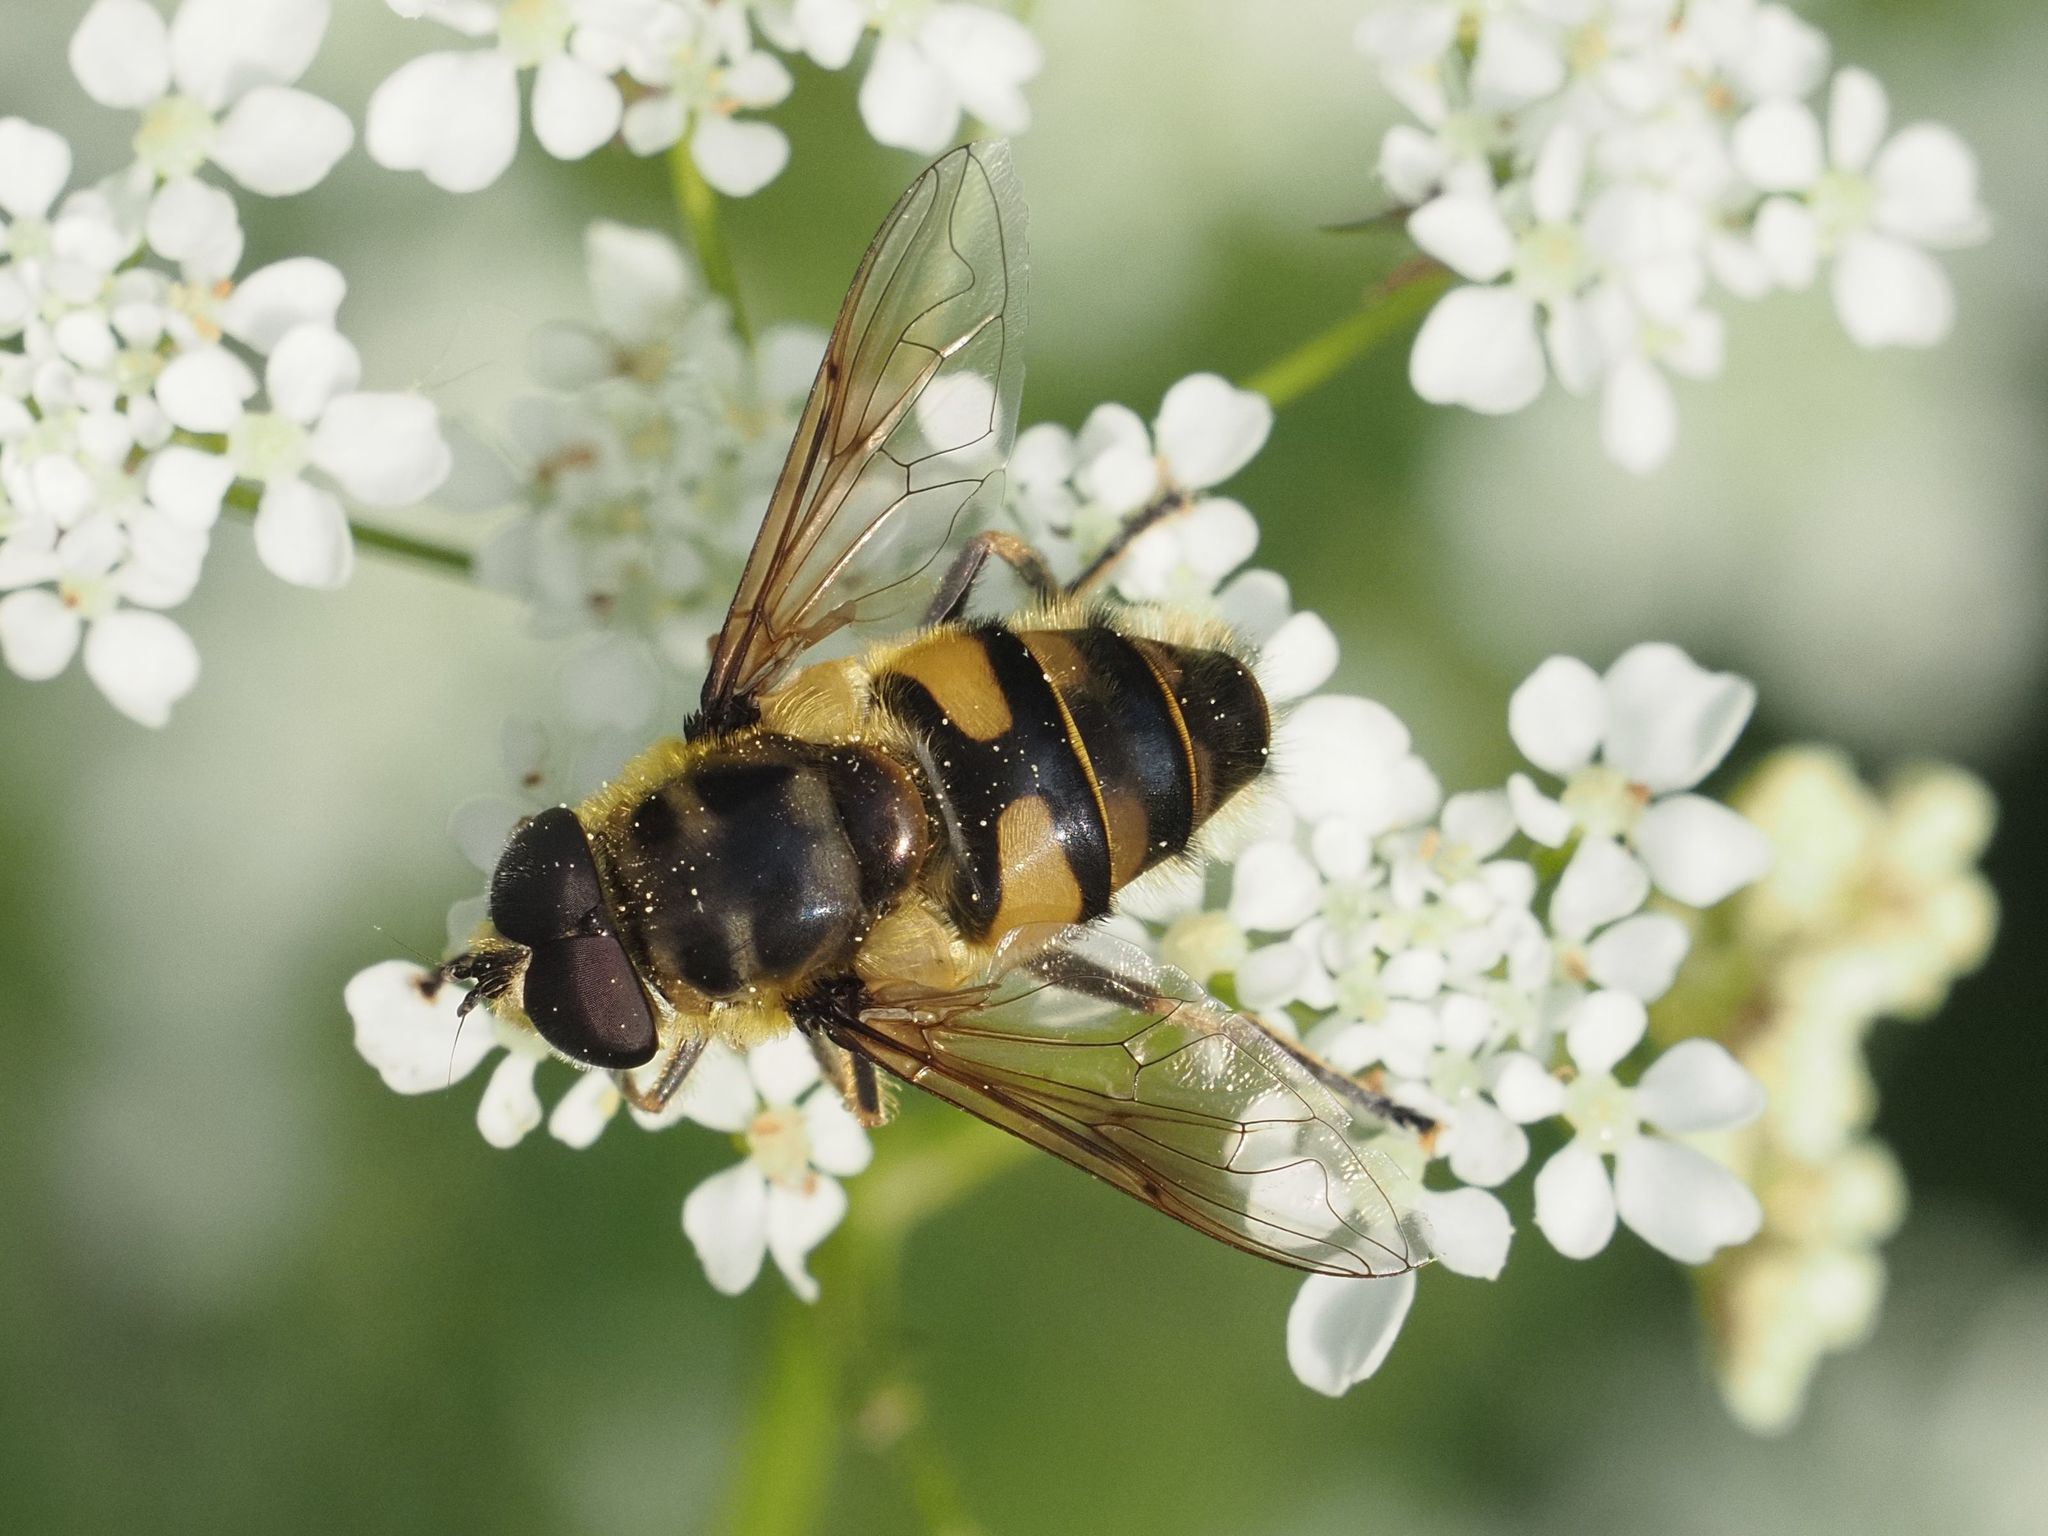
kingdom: Animalia
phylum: Arthropoda
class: Insecta
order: Diptera
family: Syrphidae
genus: Myathropa
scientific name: Myathropa florea
